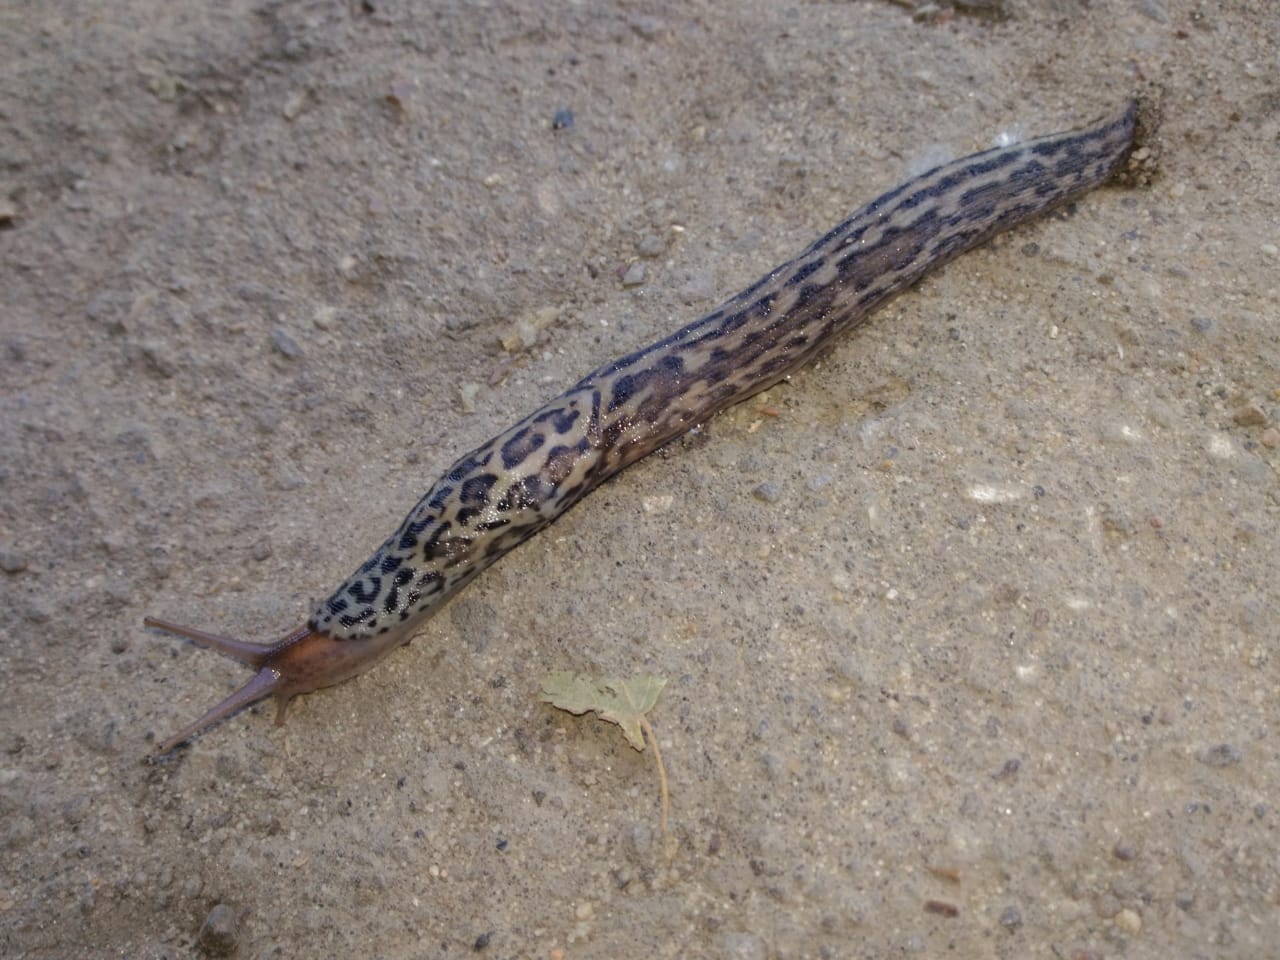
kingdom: Animalia
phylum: Mollusca
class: Gastropoda
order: Stylommatophora
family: Limacidae
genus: Limax
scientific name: Limax maximus
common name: Great grey slug
